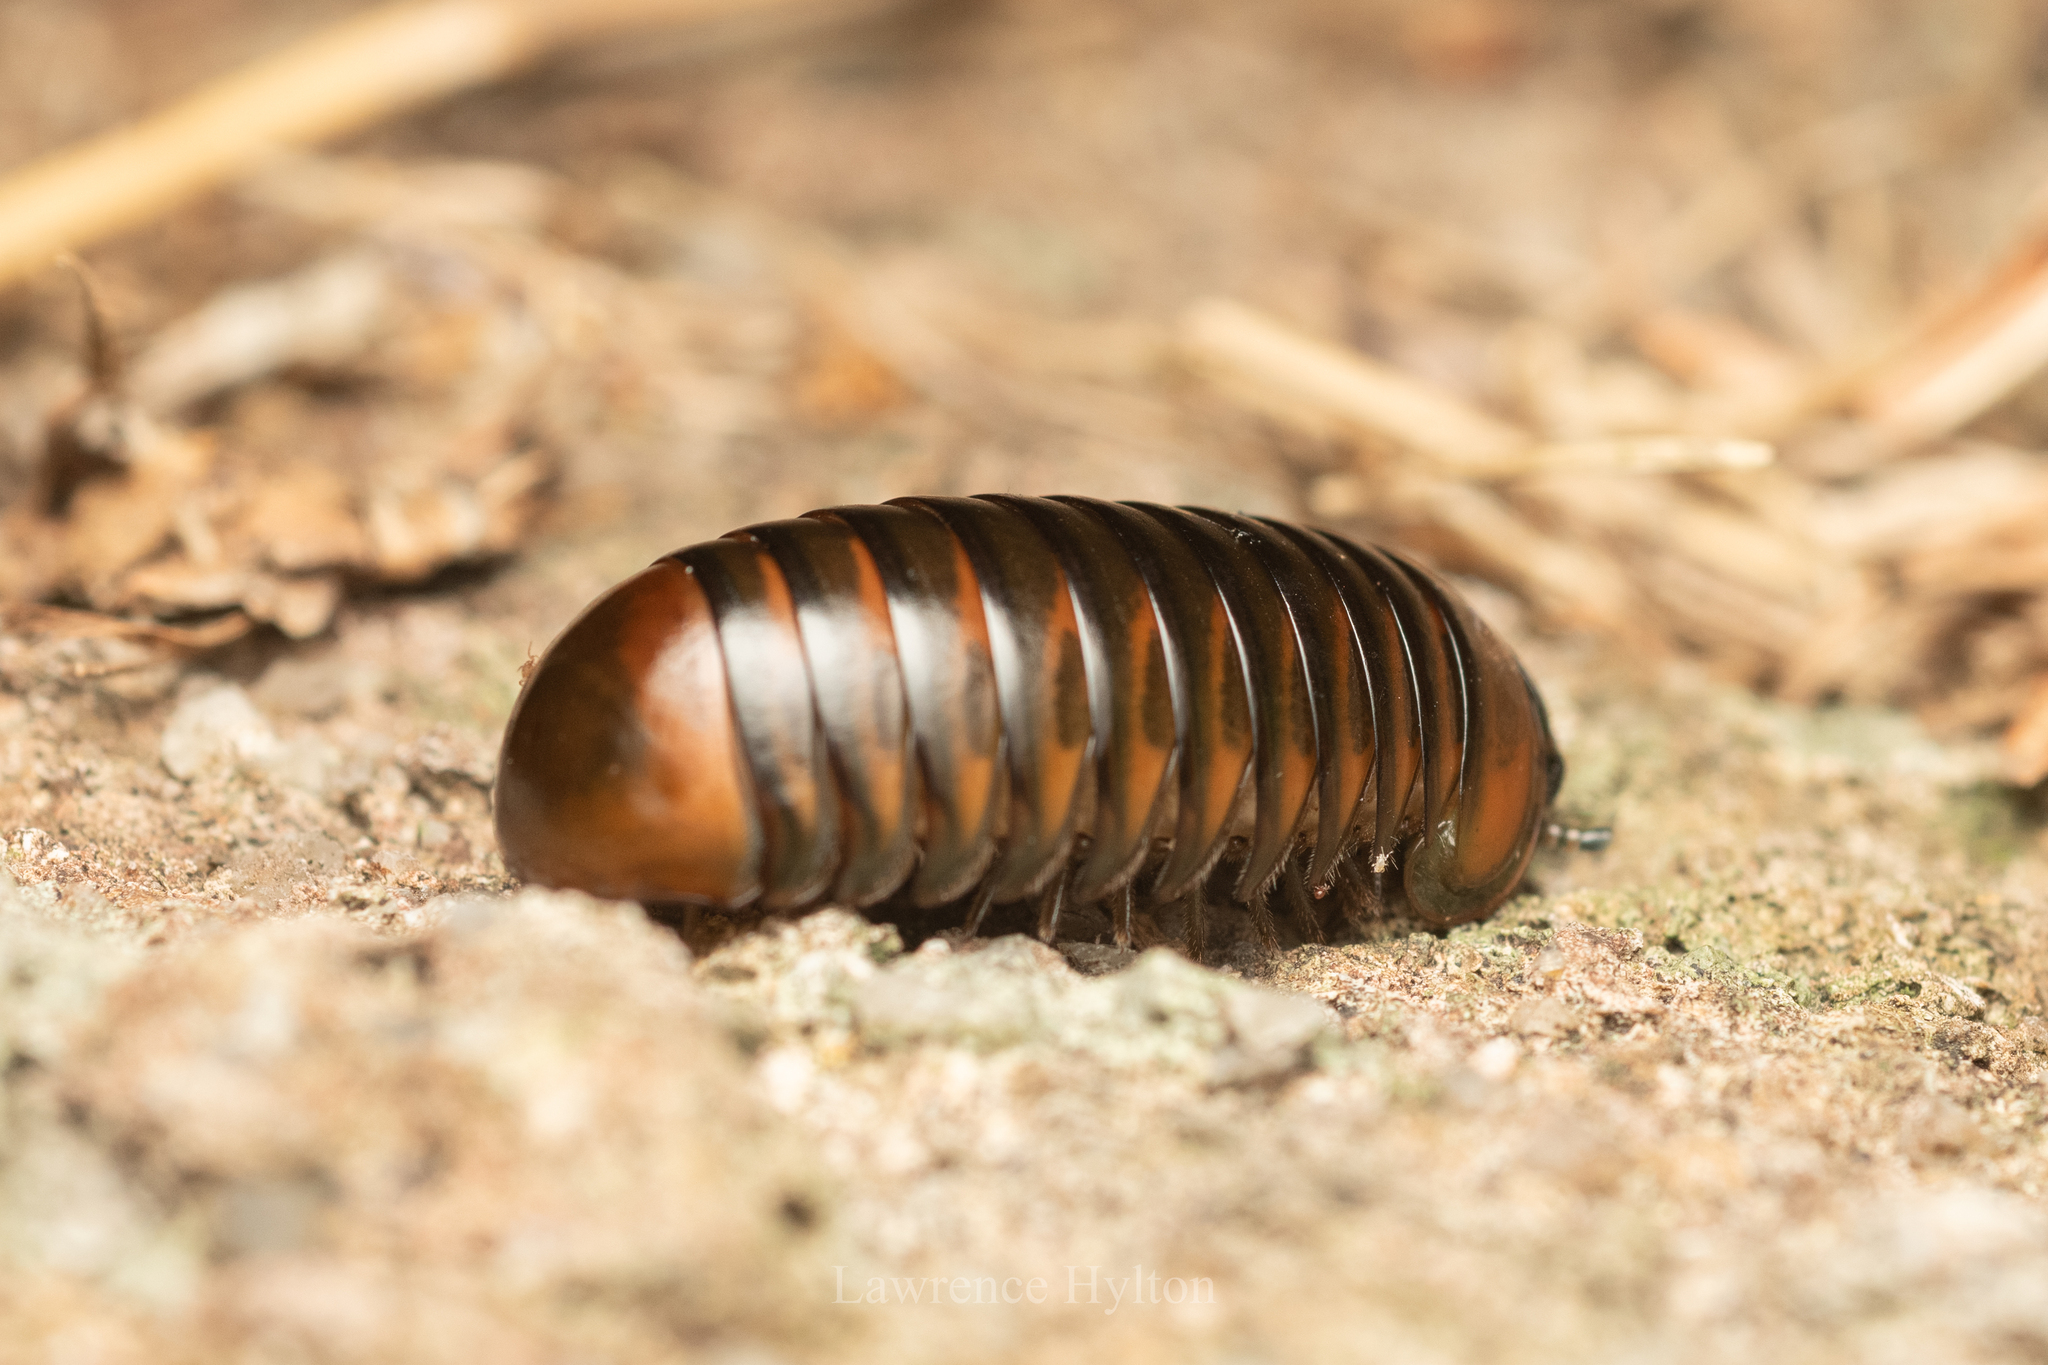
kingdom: Animalia
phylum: Arthropoda
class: Diplopoda
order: Sphaerotheriida
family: Zephroniidae
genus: Zephronia
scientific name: Zephronia profuga
